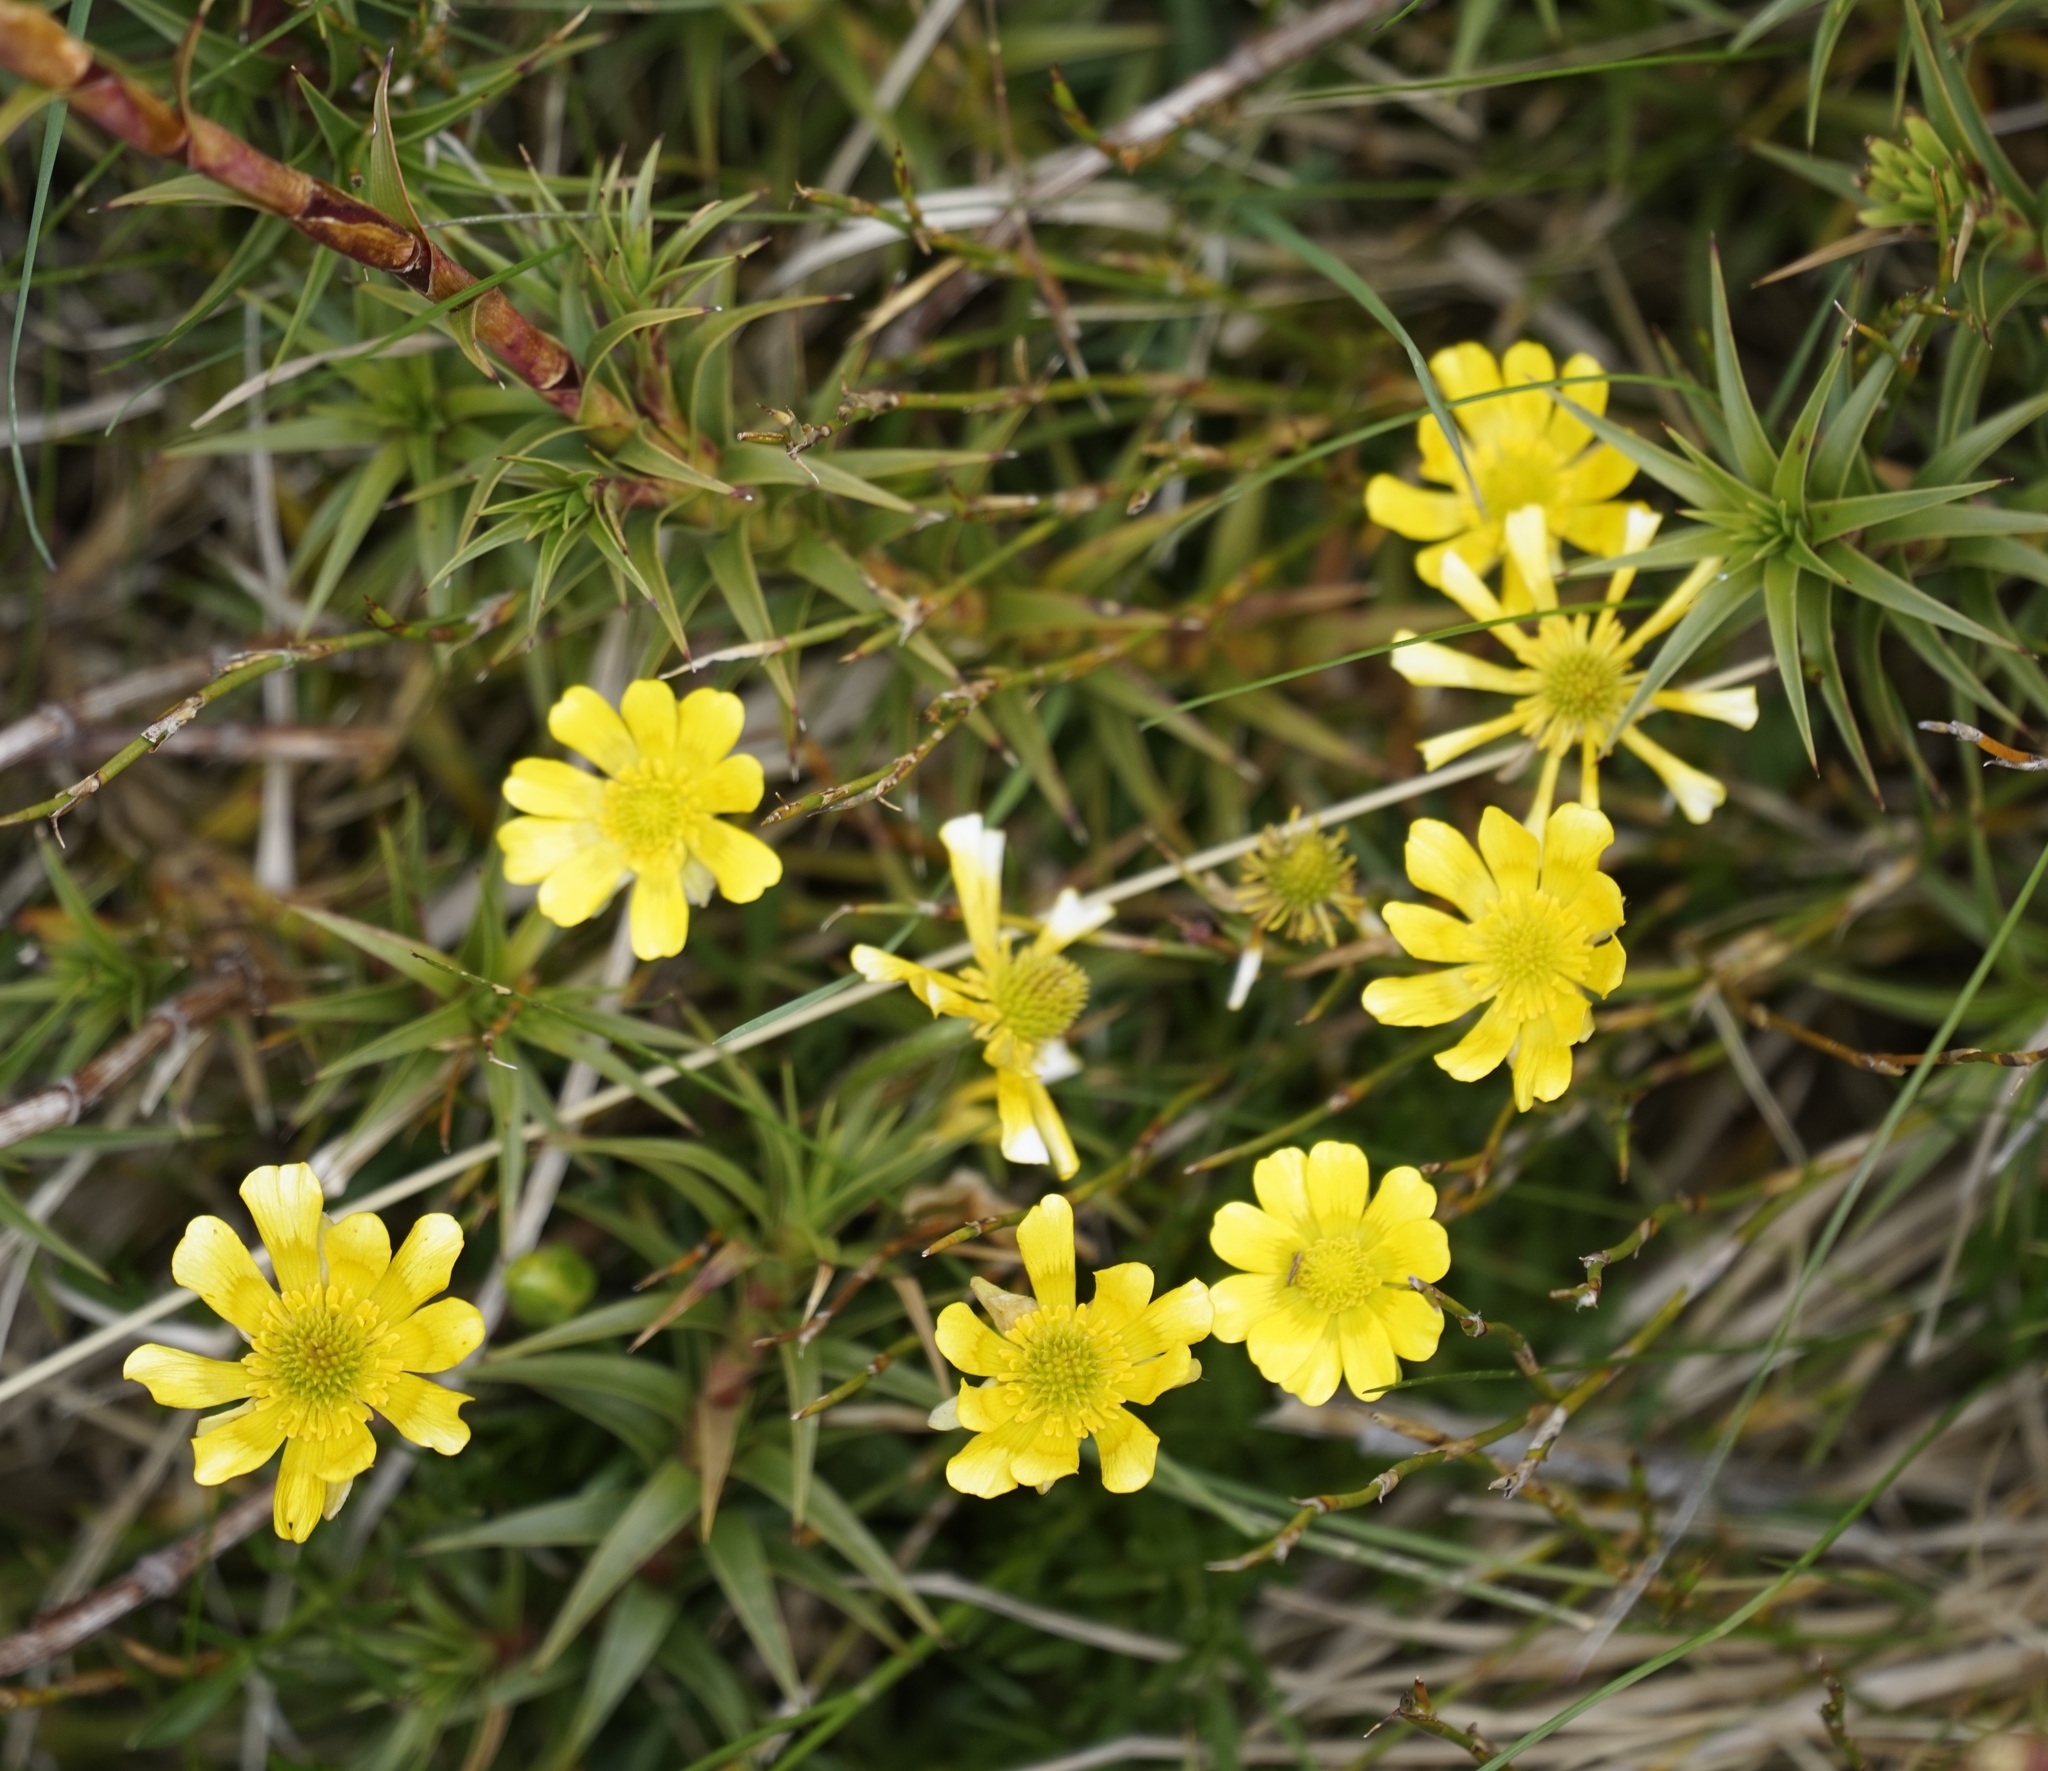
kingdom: Plantae
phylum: Tracheophyta
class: Magnoliopsida
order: Ranunculales
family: Ranunculaceae
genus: Ranunculus
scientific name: Ranunculus gunnianus
